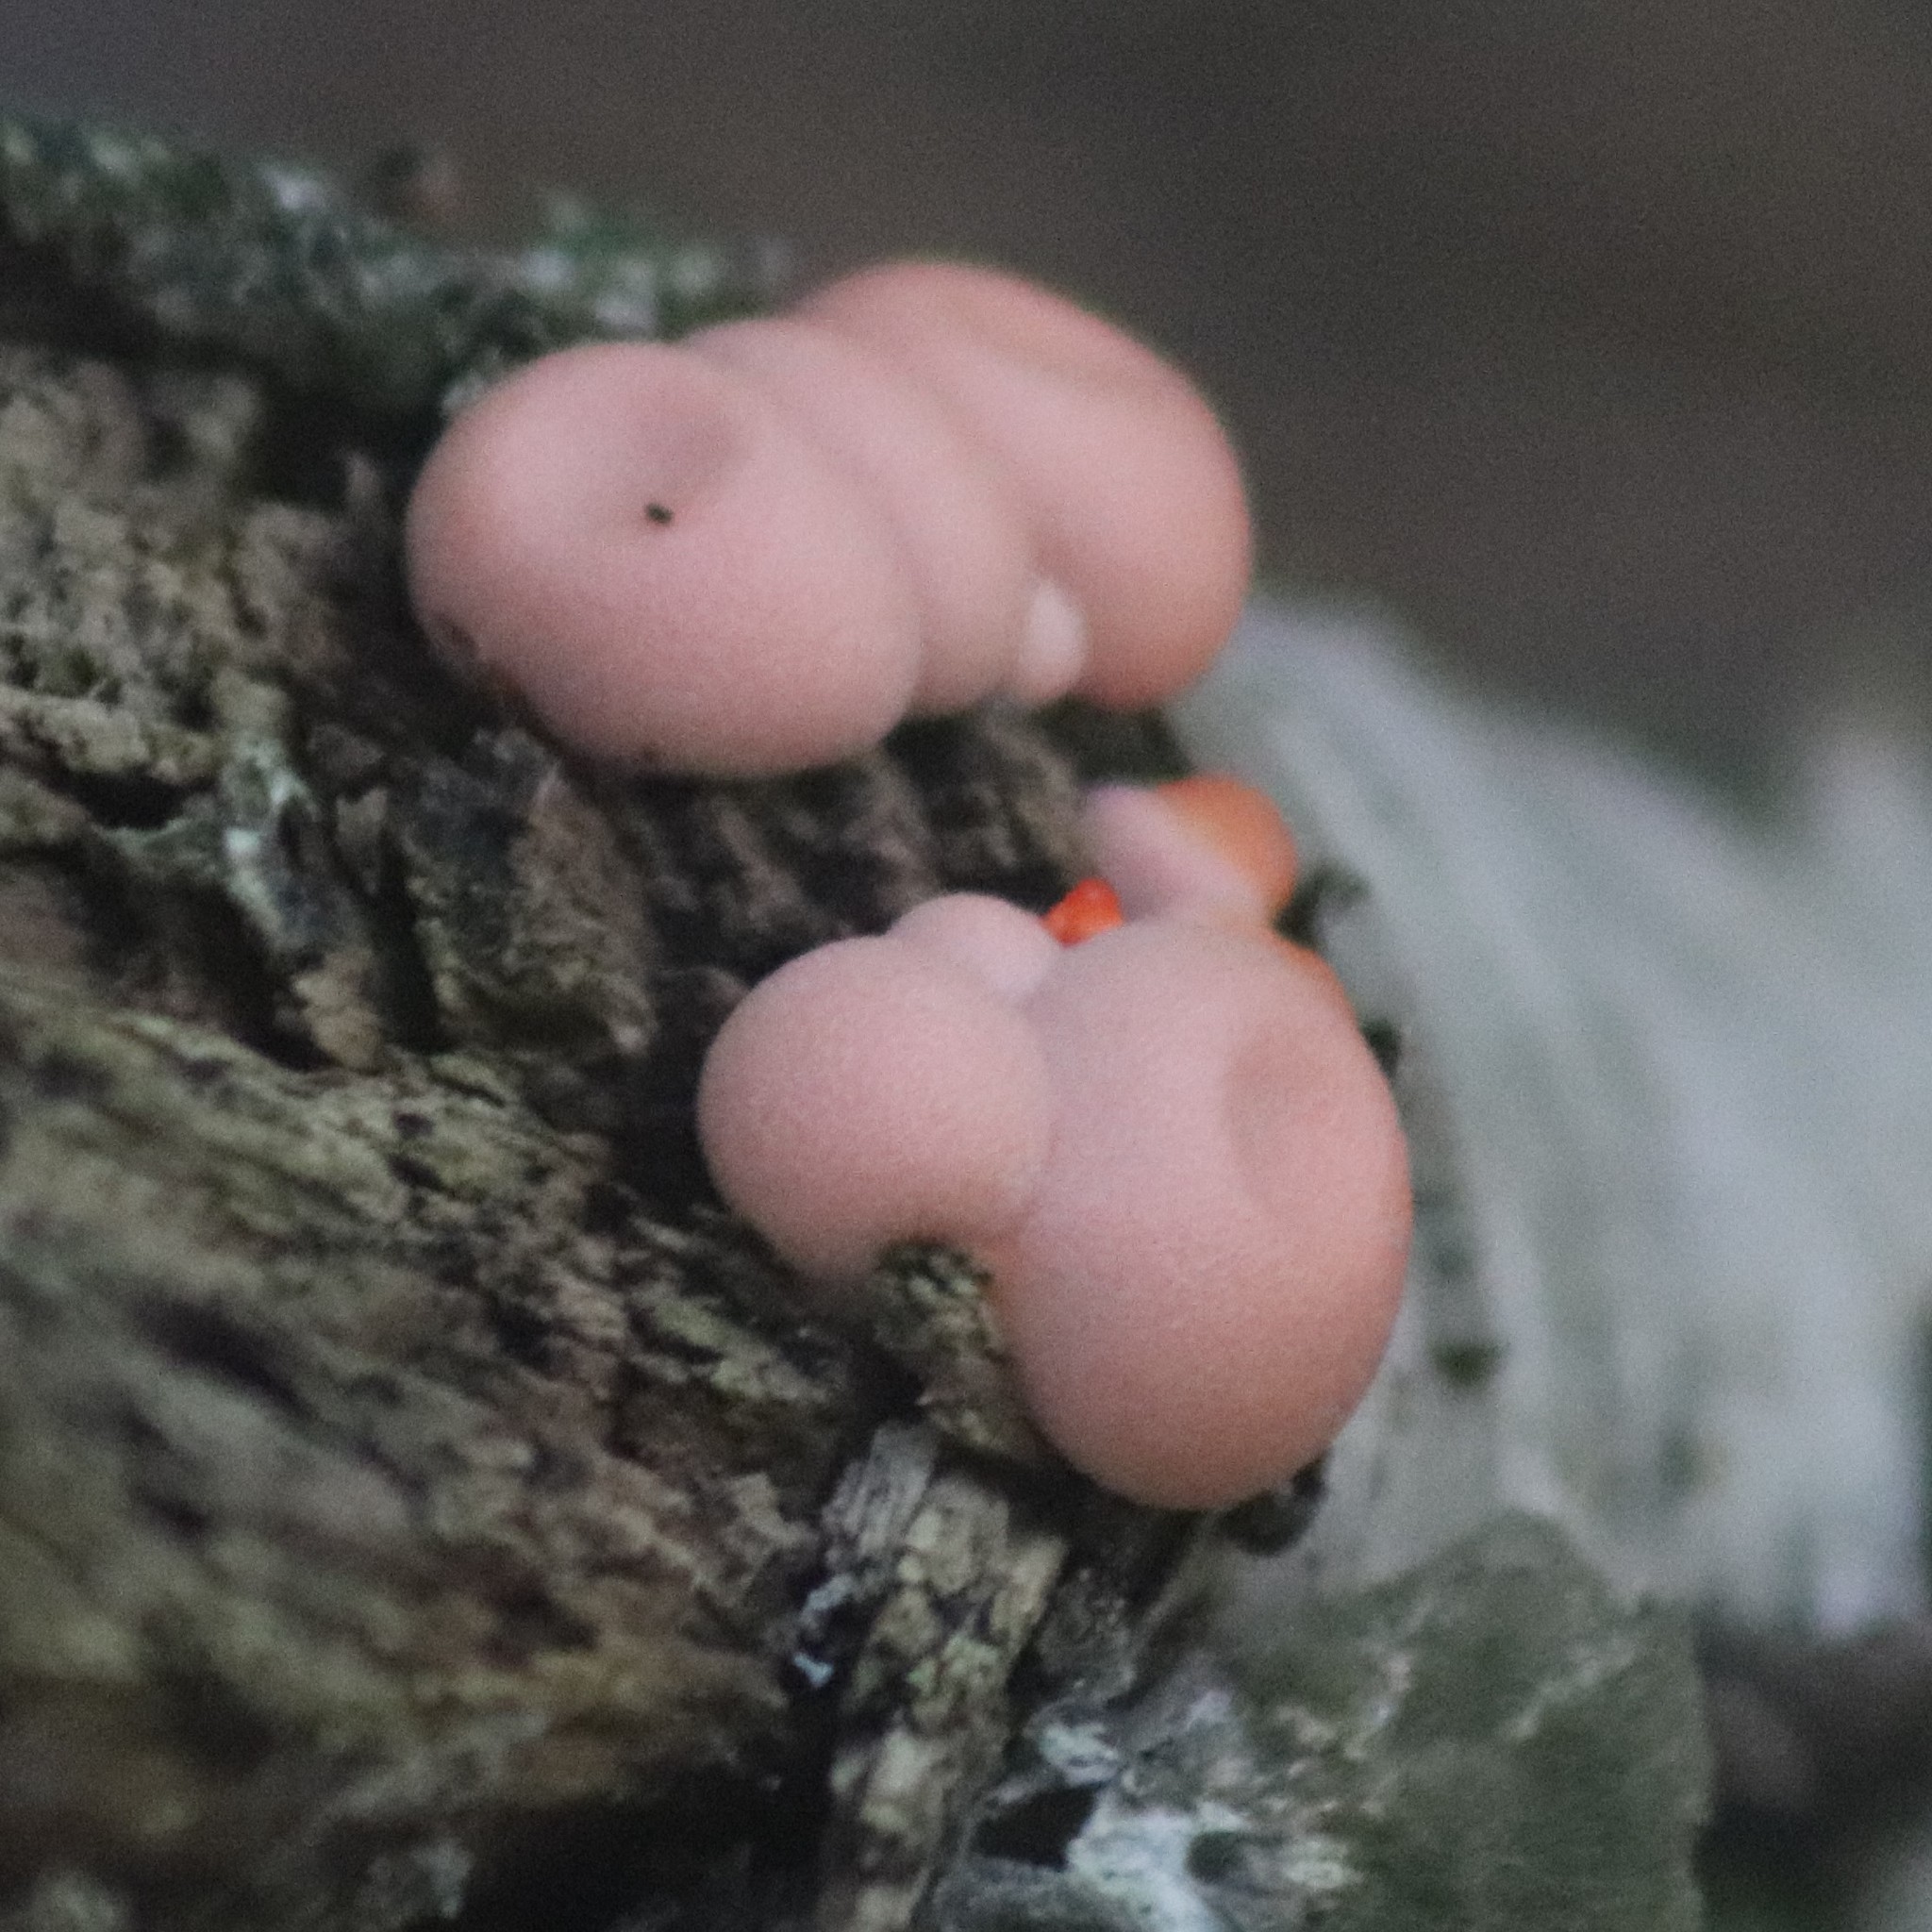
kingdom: Protozoa
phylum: Mycetozoa
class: Myxomycetes
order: Cribrariales
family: Tubiferaceae
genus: Lycogala
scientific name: Lycogala epidendrum
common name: Wolf's milk
